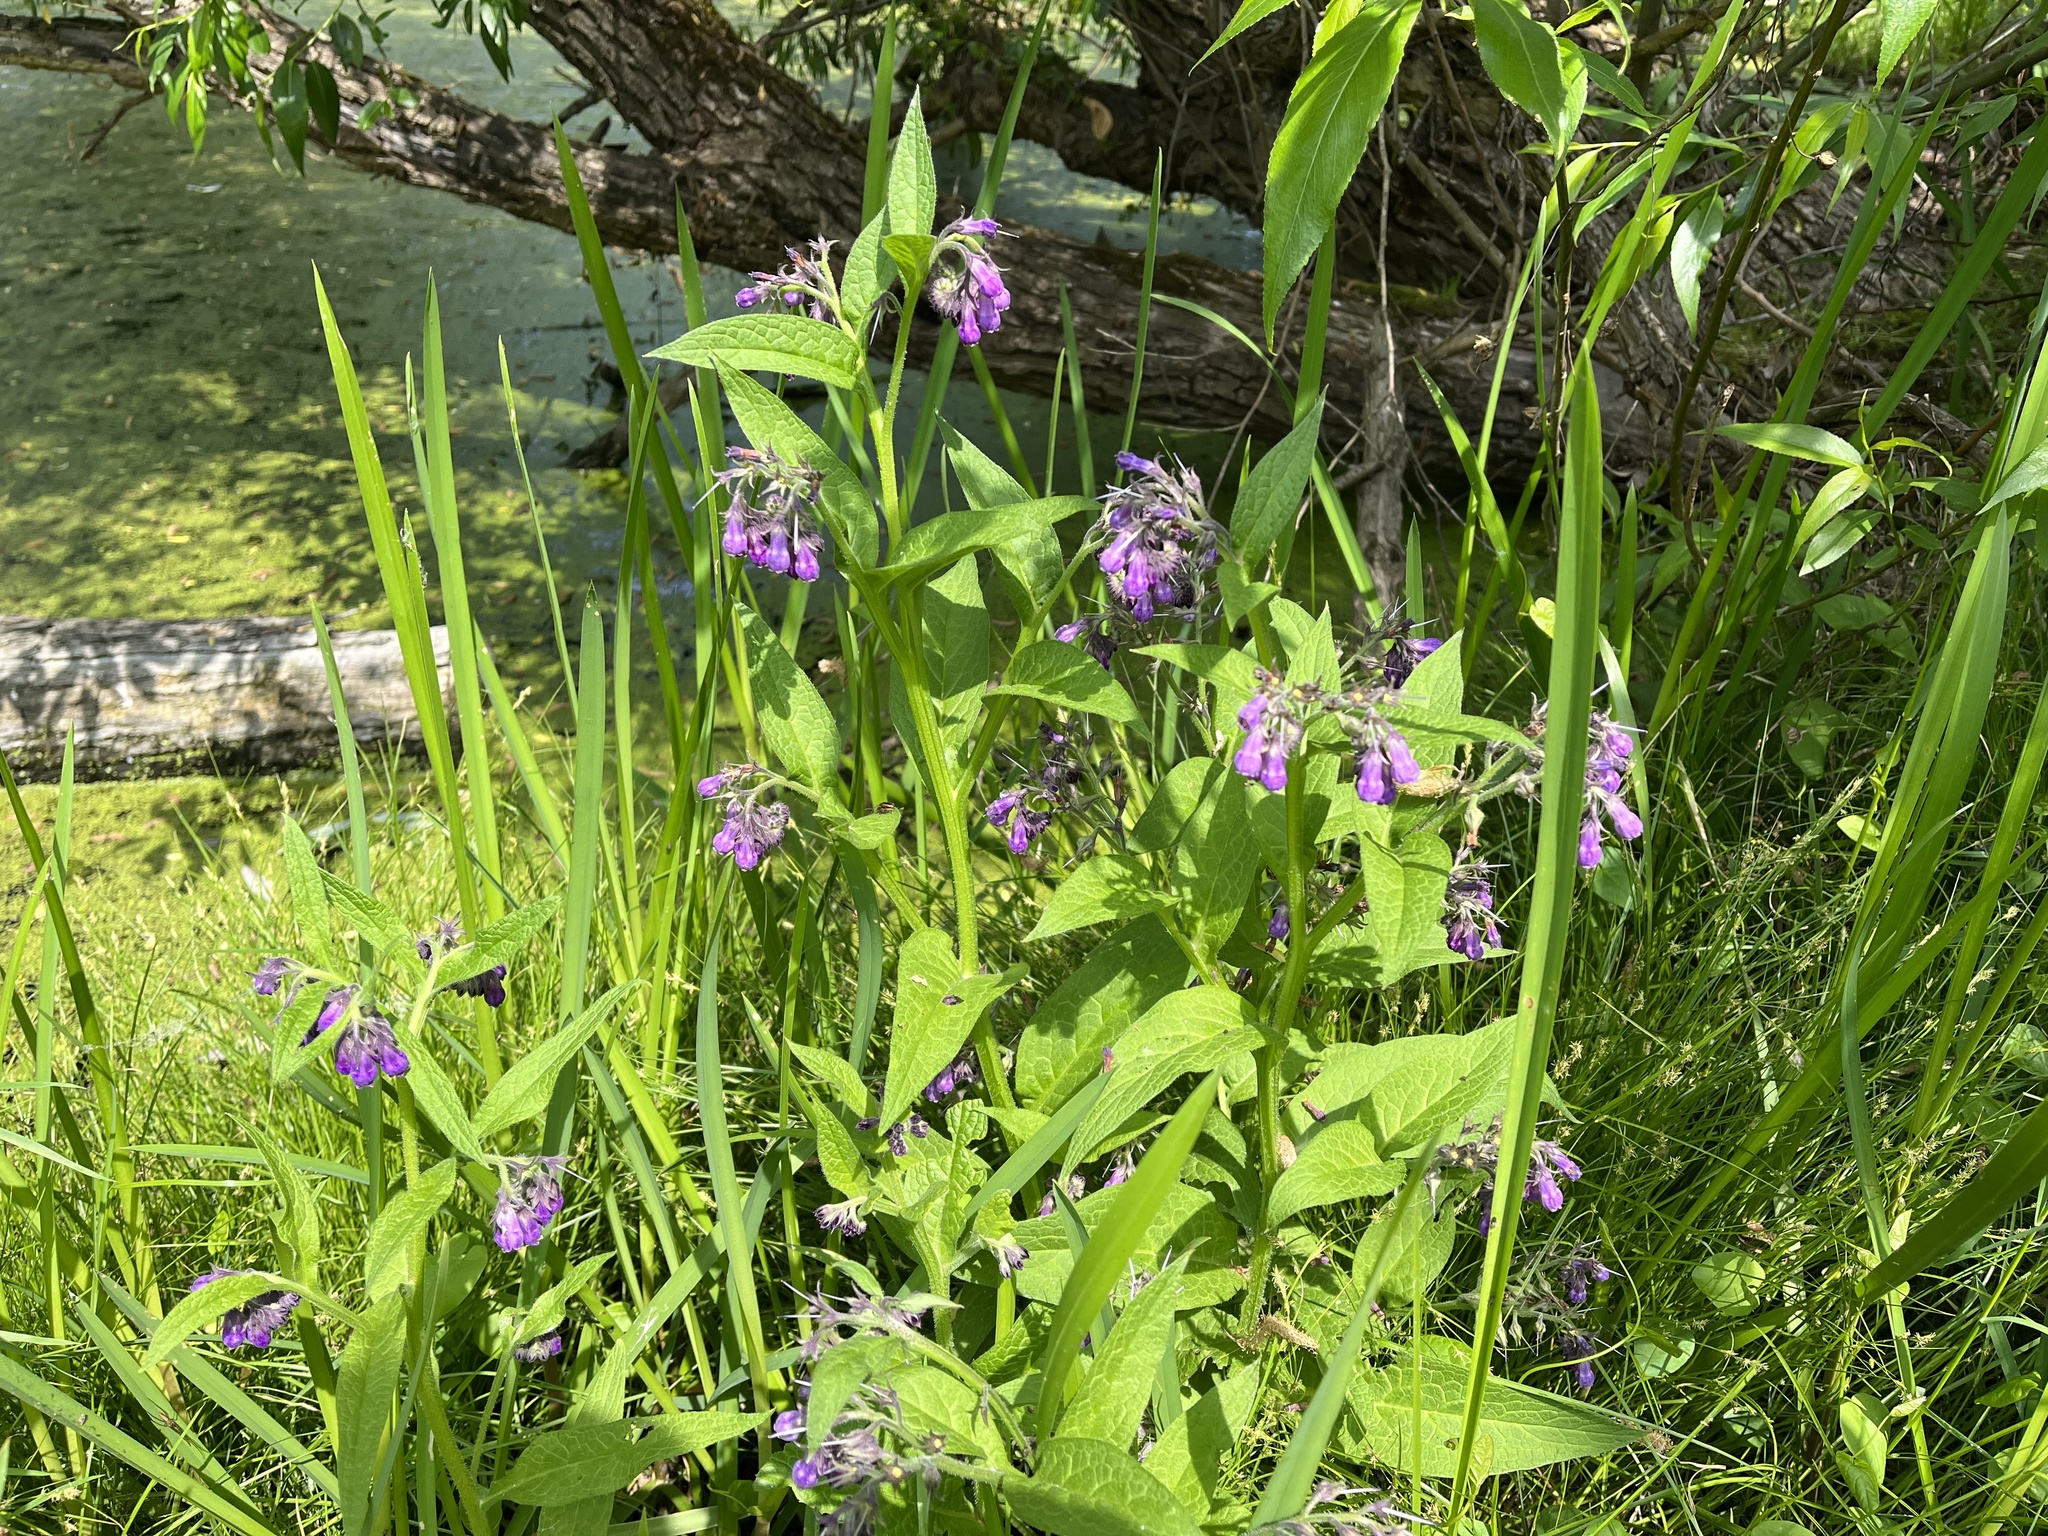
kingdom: Plantae
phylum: Tracheophyta
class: Magnoliopsida
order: Boraginales
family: Boraginaceae
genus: Symphytum
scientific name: Symphytum officinale
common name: Common comfrey
